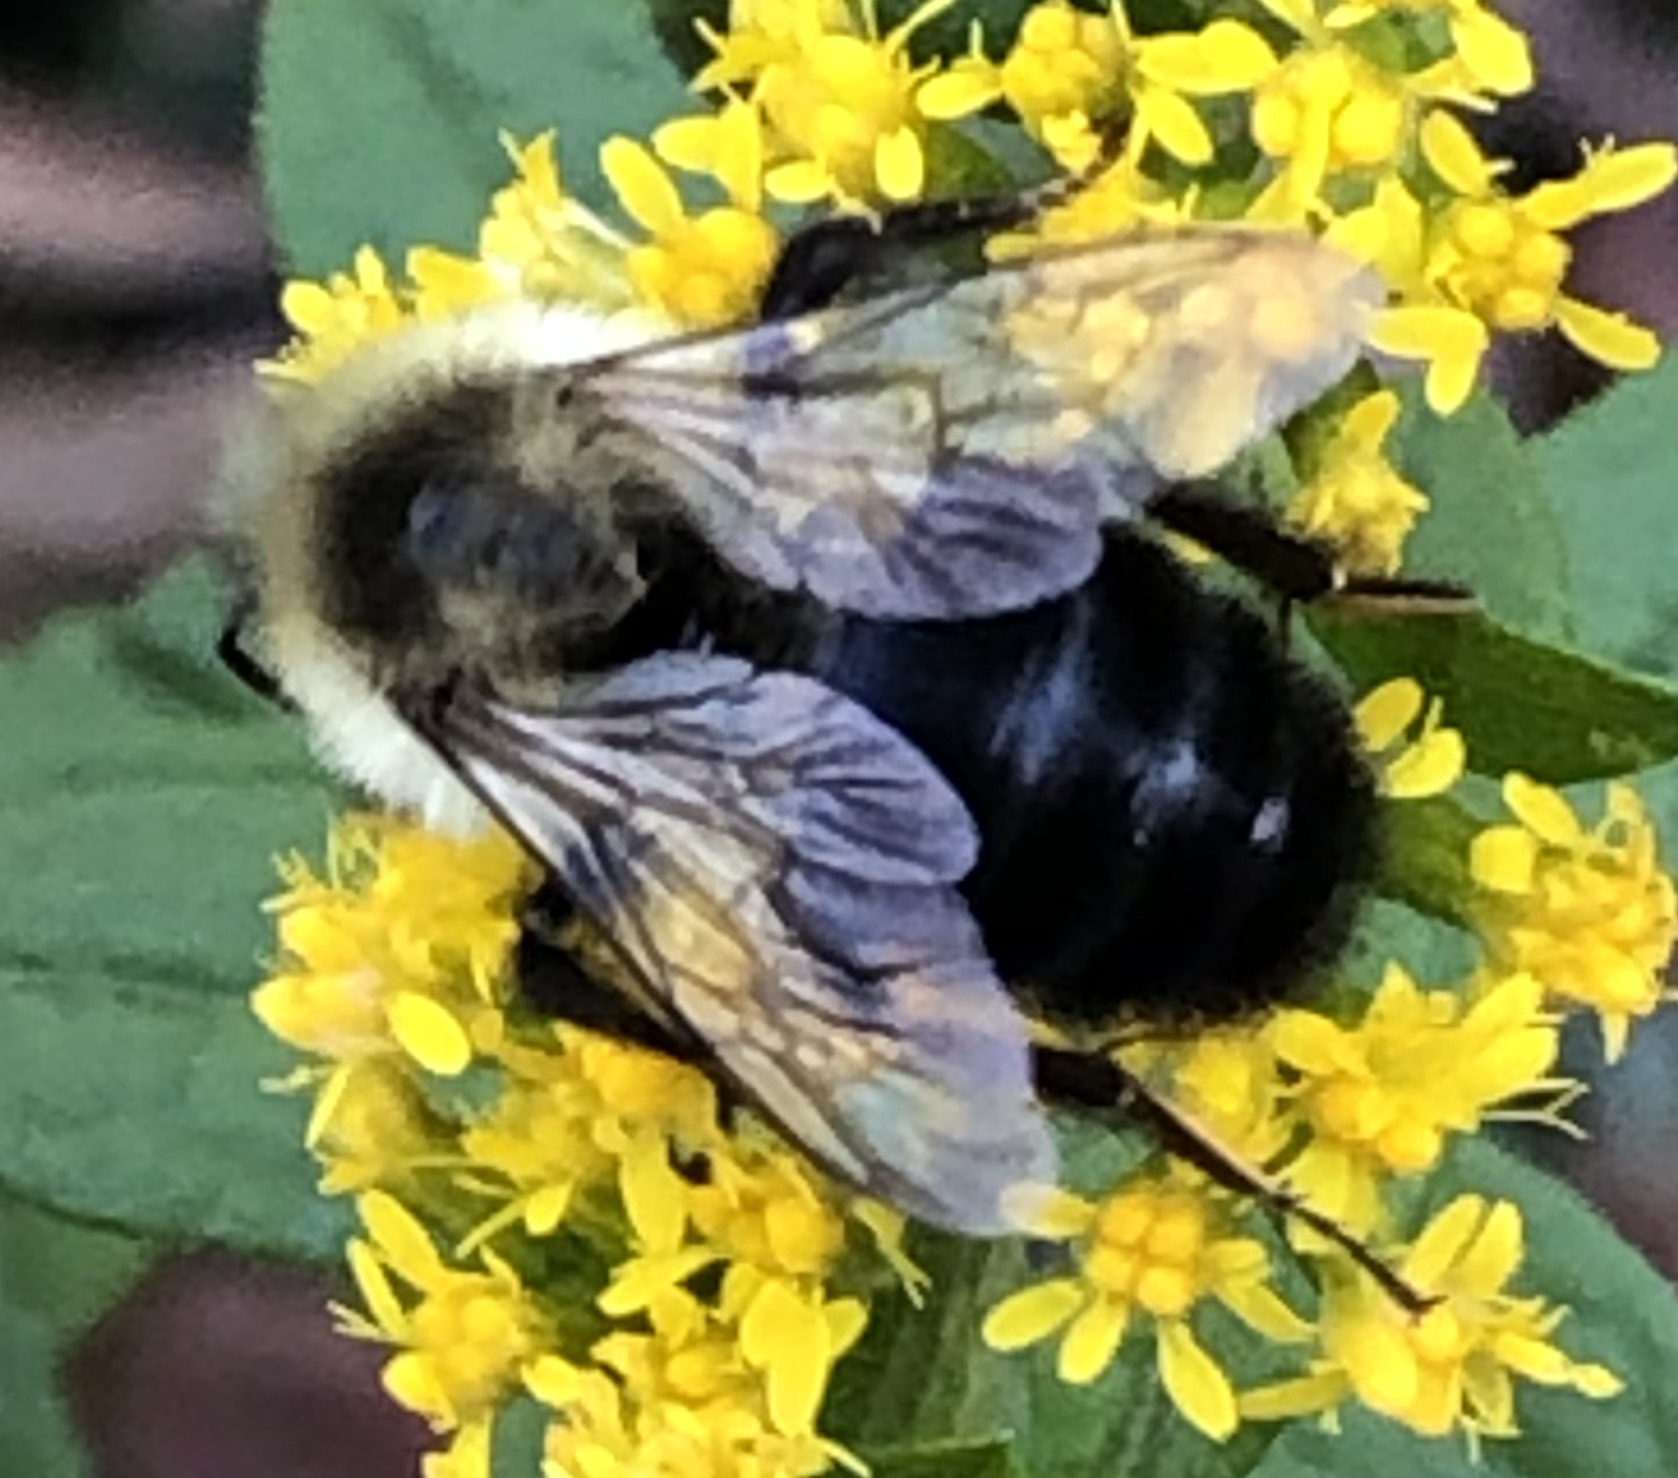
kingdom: Animalia
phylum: Arthropoda
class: Insecta
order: Hymenoptera
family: Apidae
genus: Bombus
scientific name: Bombus impatiens
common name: Common eastern bumble bee
